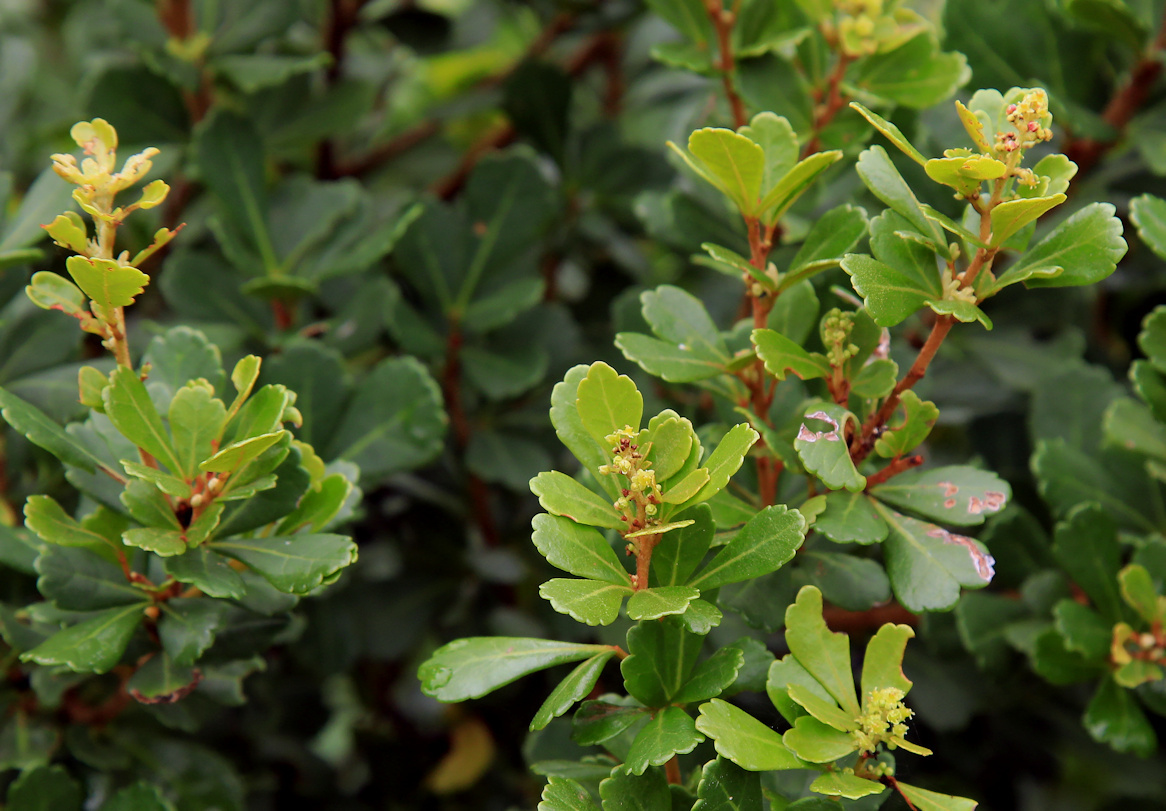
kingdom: Plantae
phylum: Tracheophyta
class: Magnoliopsida
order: Sapindales
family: Anacardiaceae
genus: Searsia
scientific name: Searsia crenata
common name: Crowberry
